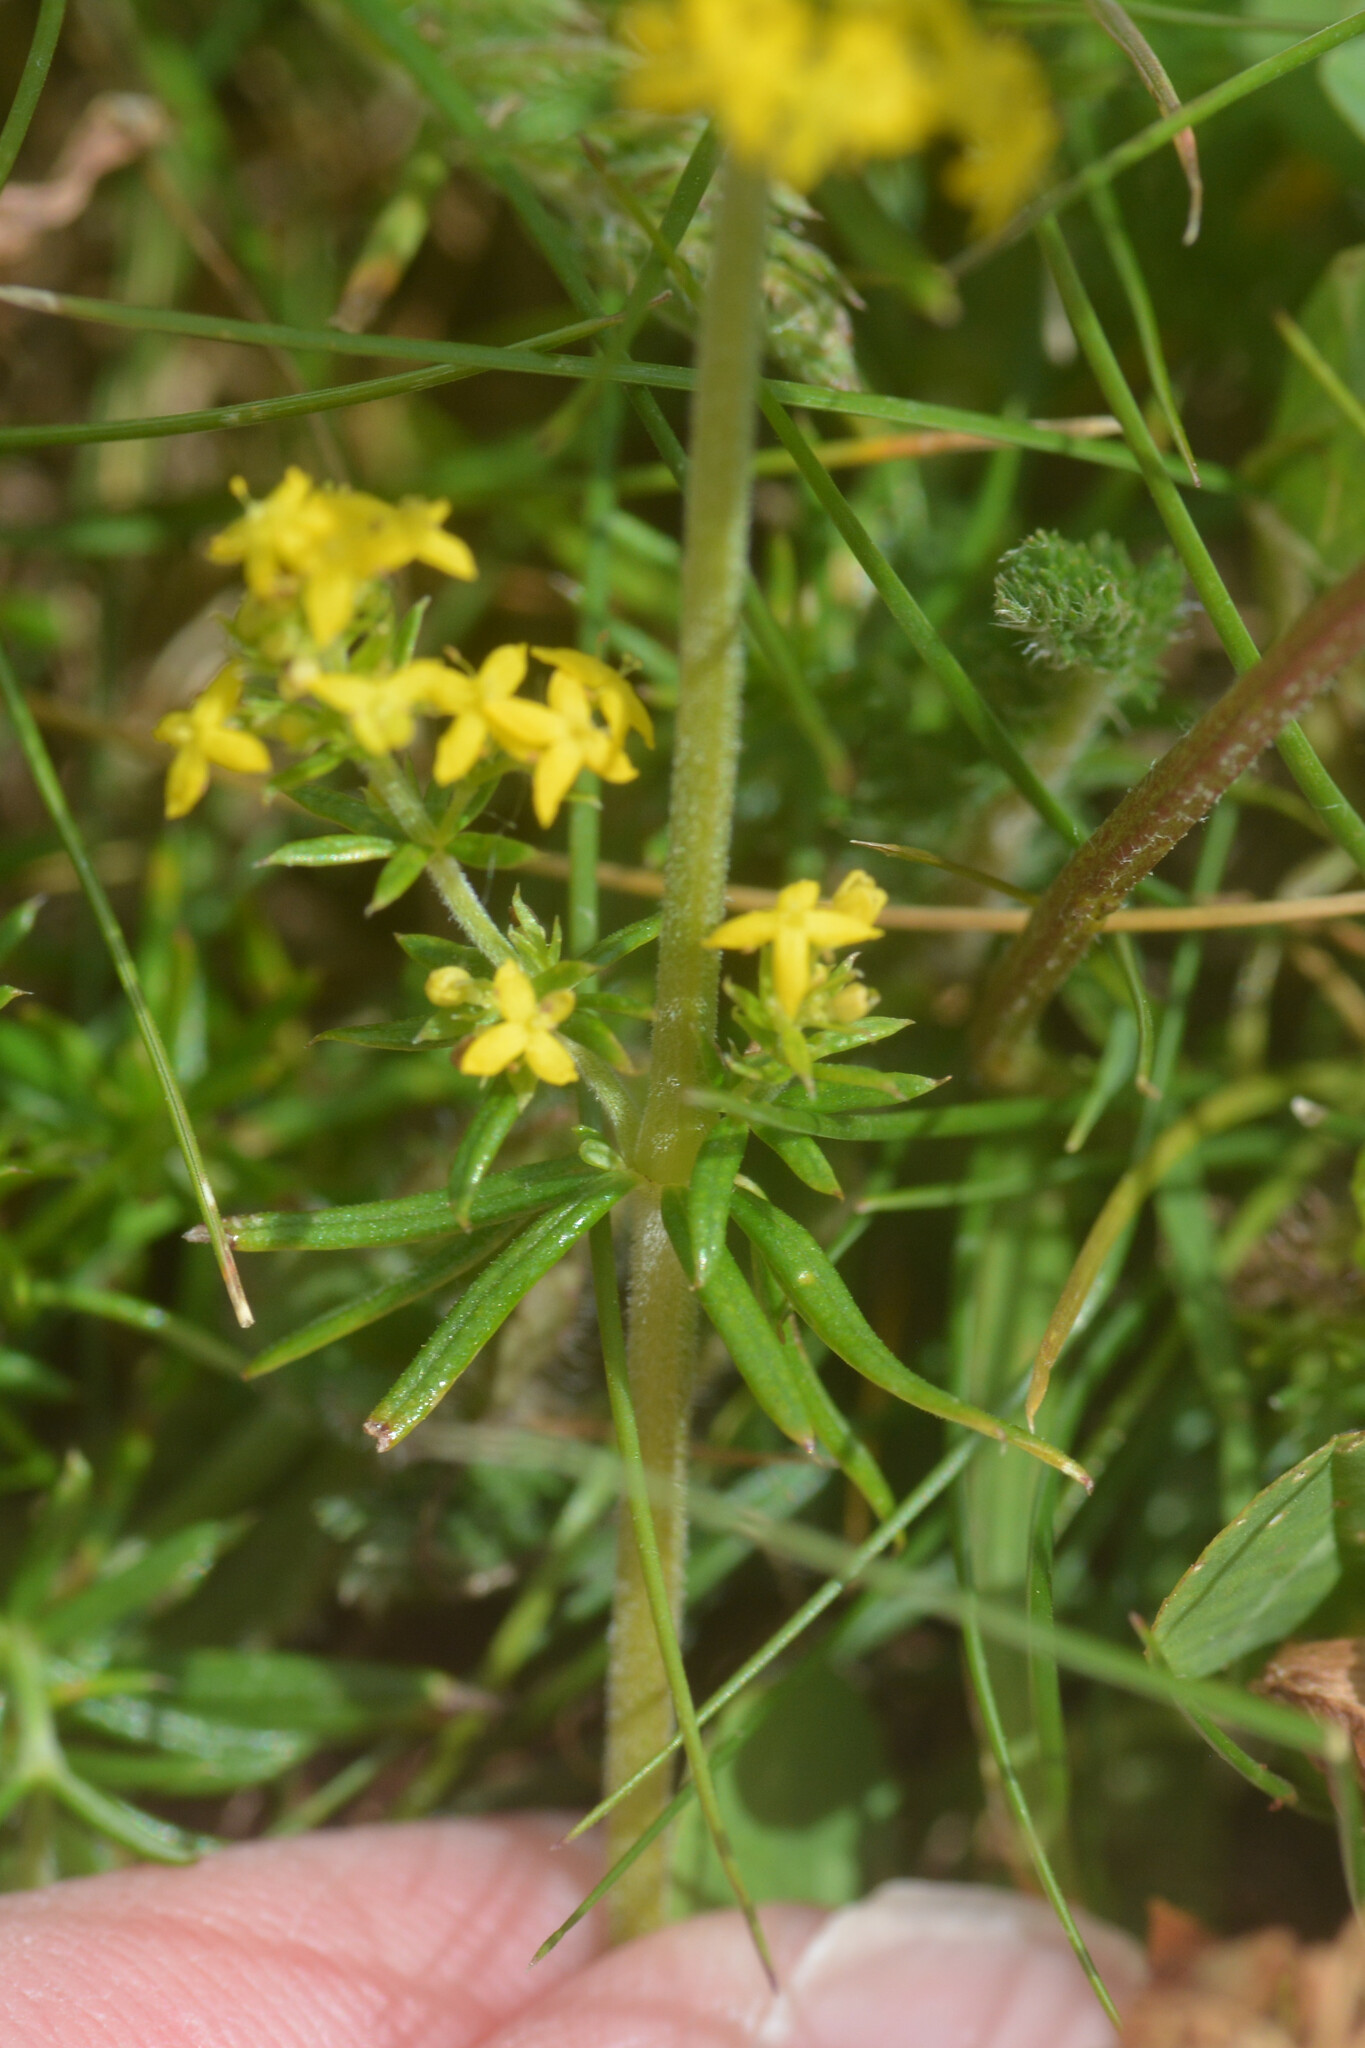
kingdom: Plantae
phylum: Tracheophyta
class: Magnoliopsida
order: Gentianales
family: Rubiaceae
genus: Galium
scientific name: Galium verum
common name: Lady's bedstraw
